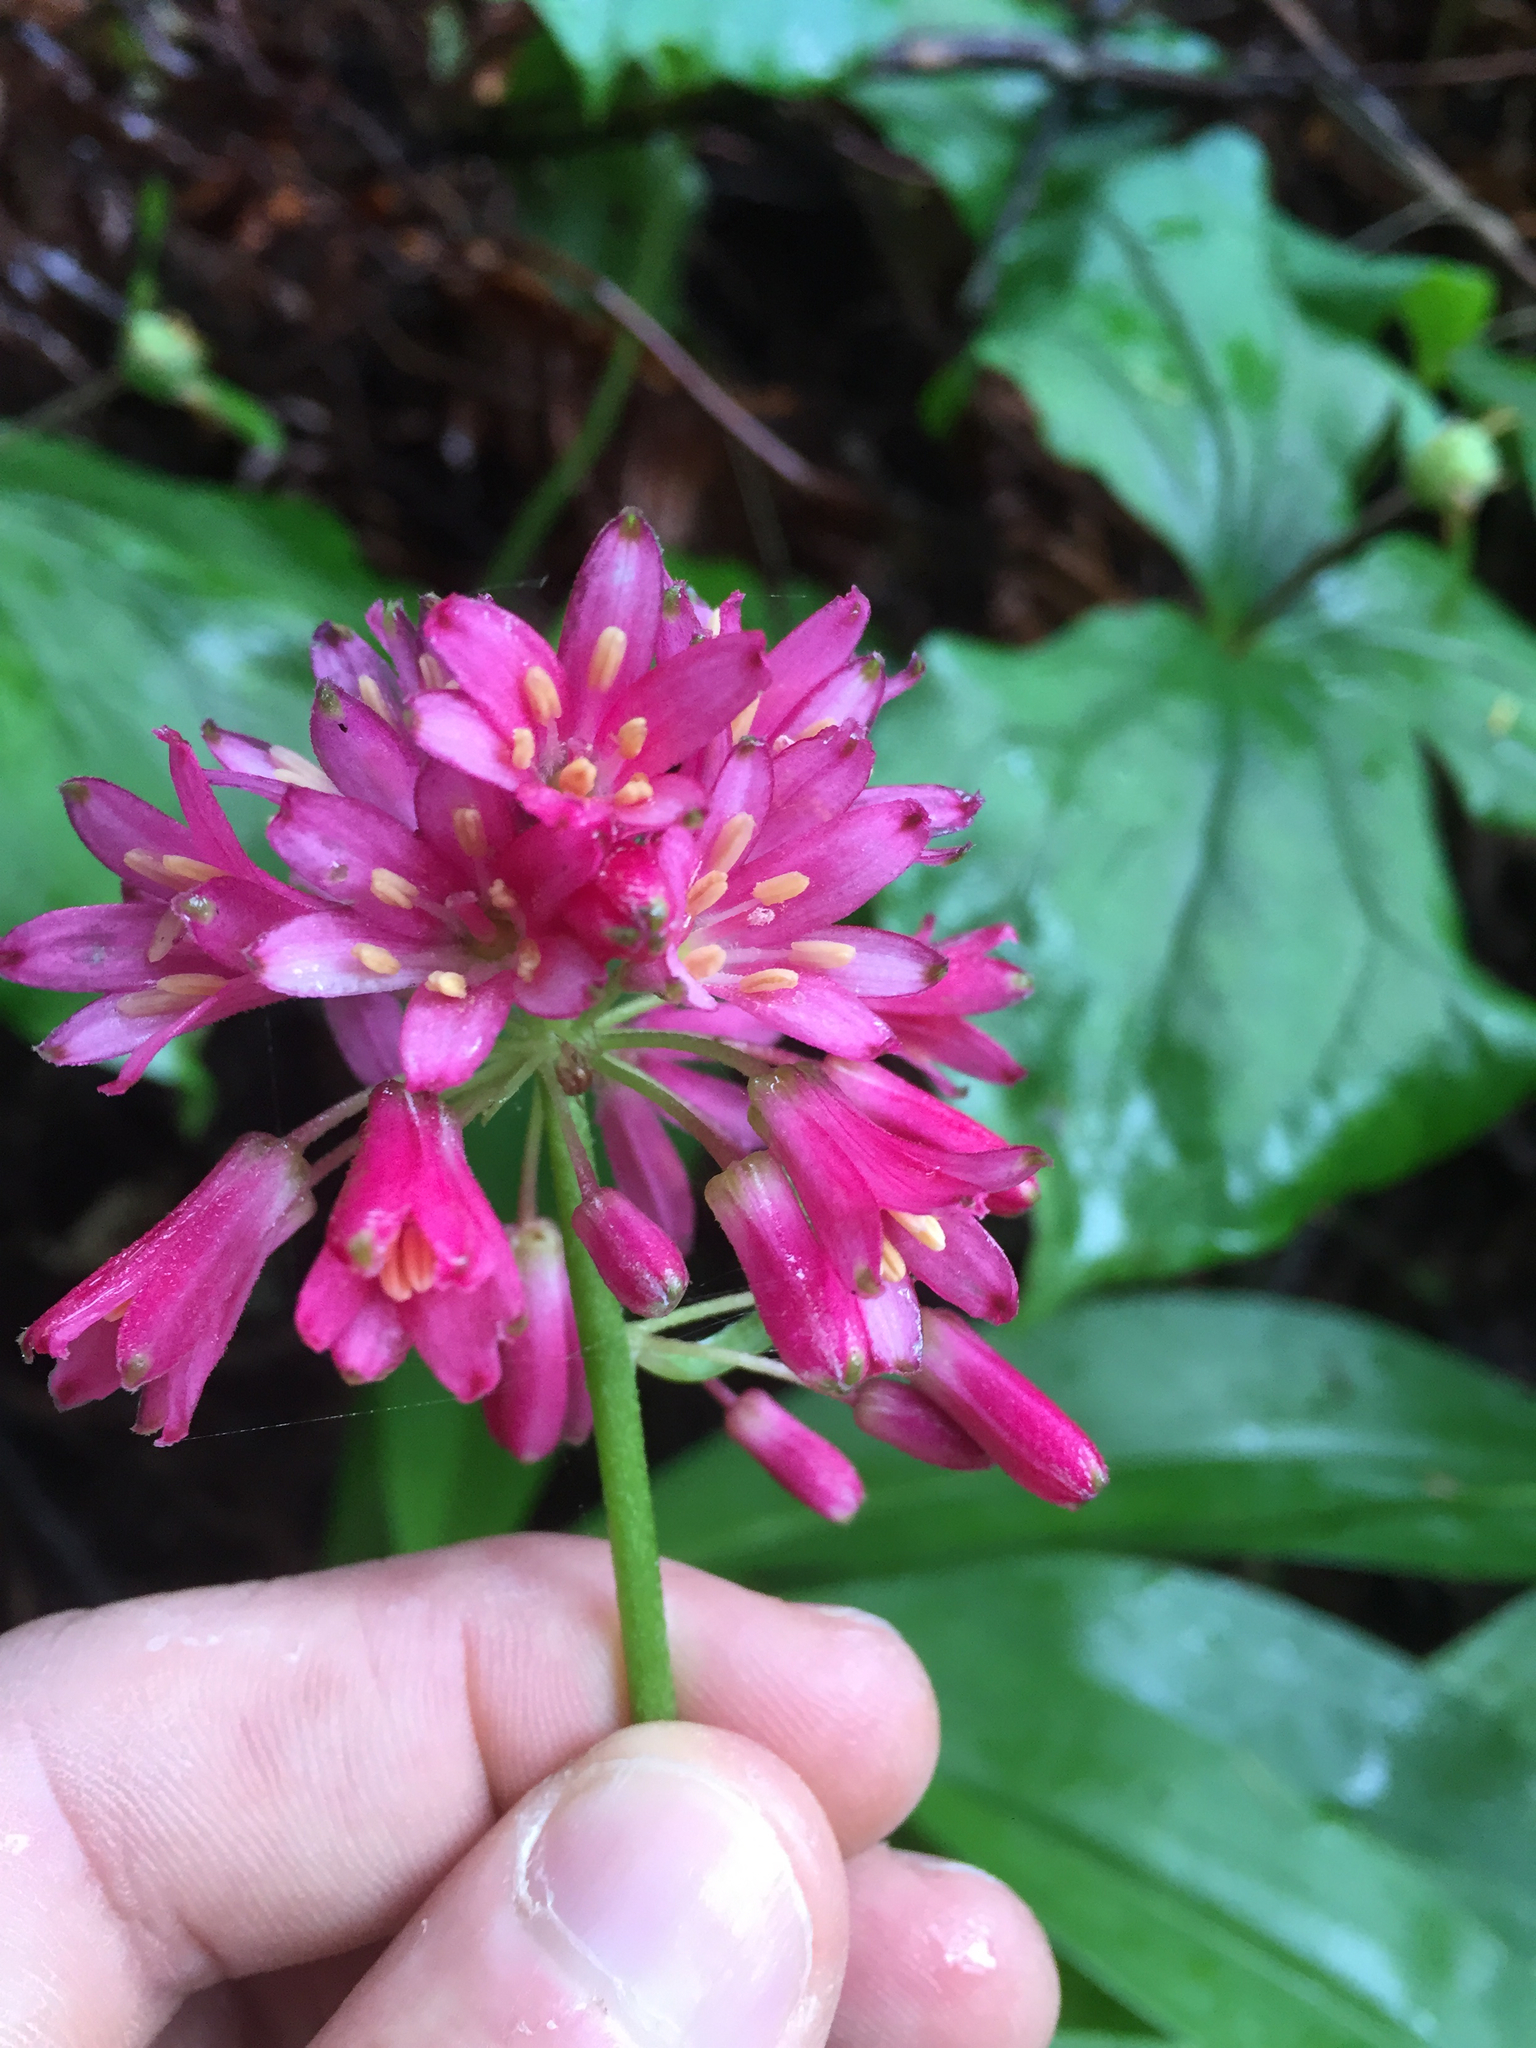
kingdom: Plantae
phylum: Tracheophyta
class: Liliopsida
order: Liliales
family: Liliaceae
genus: Clintonia
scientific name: Clintonia andrewsiana
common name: Red clintonia
